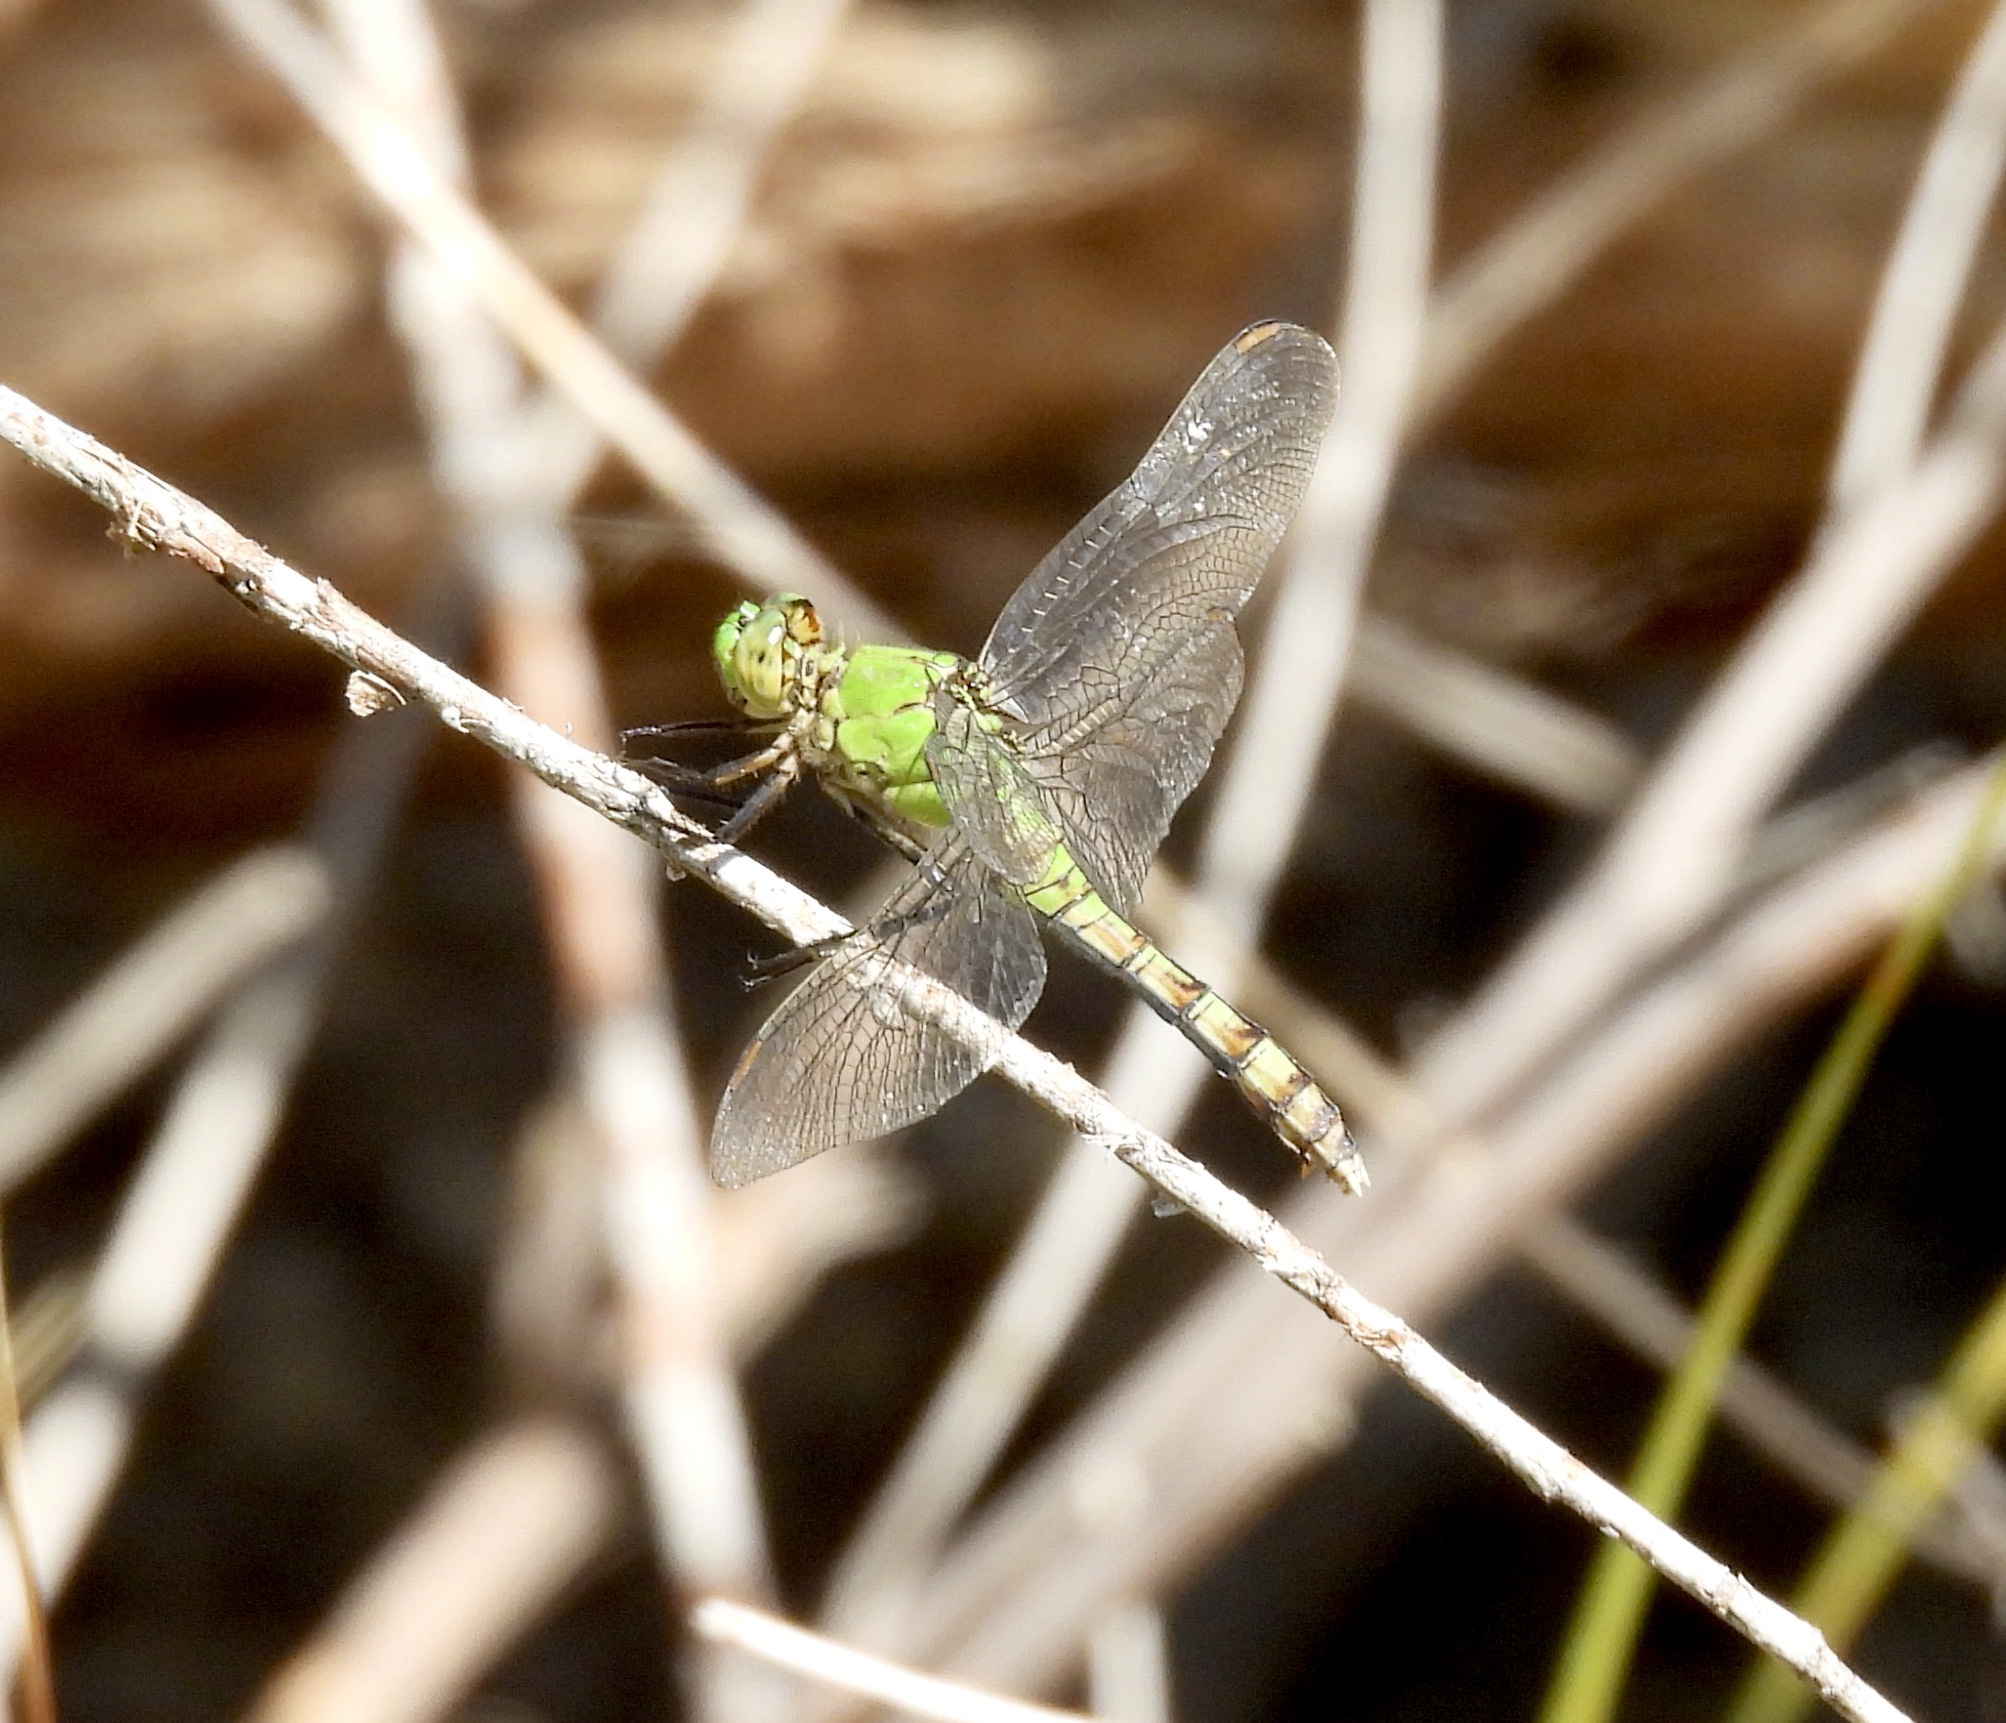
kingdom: Animalia
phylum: Arthropoda
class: Insecta
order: Odonata
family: Libellulidae
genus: Erythemis
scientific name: Erythemis collocata
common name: Western pondhawk
